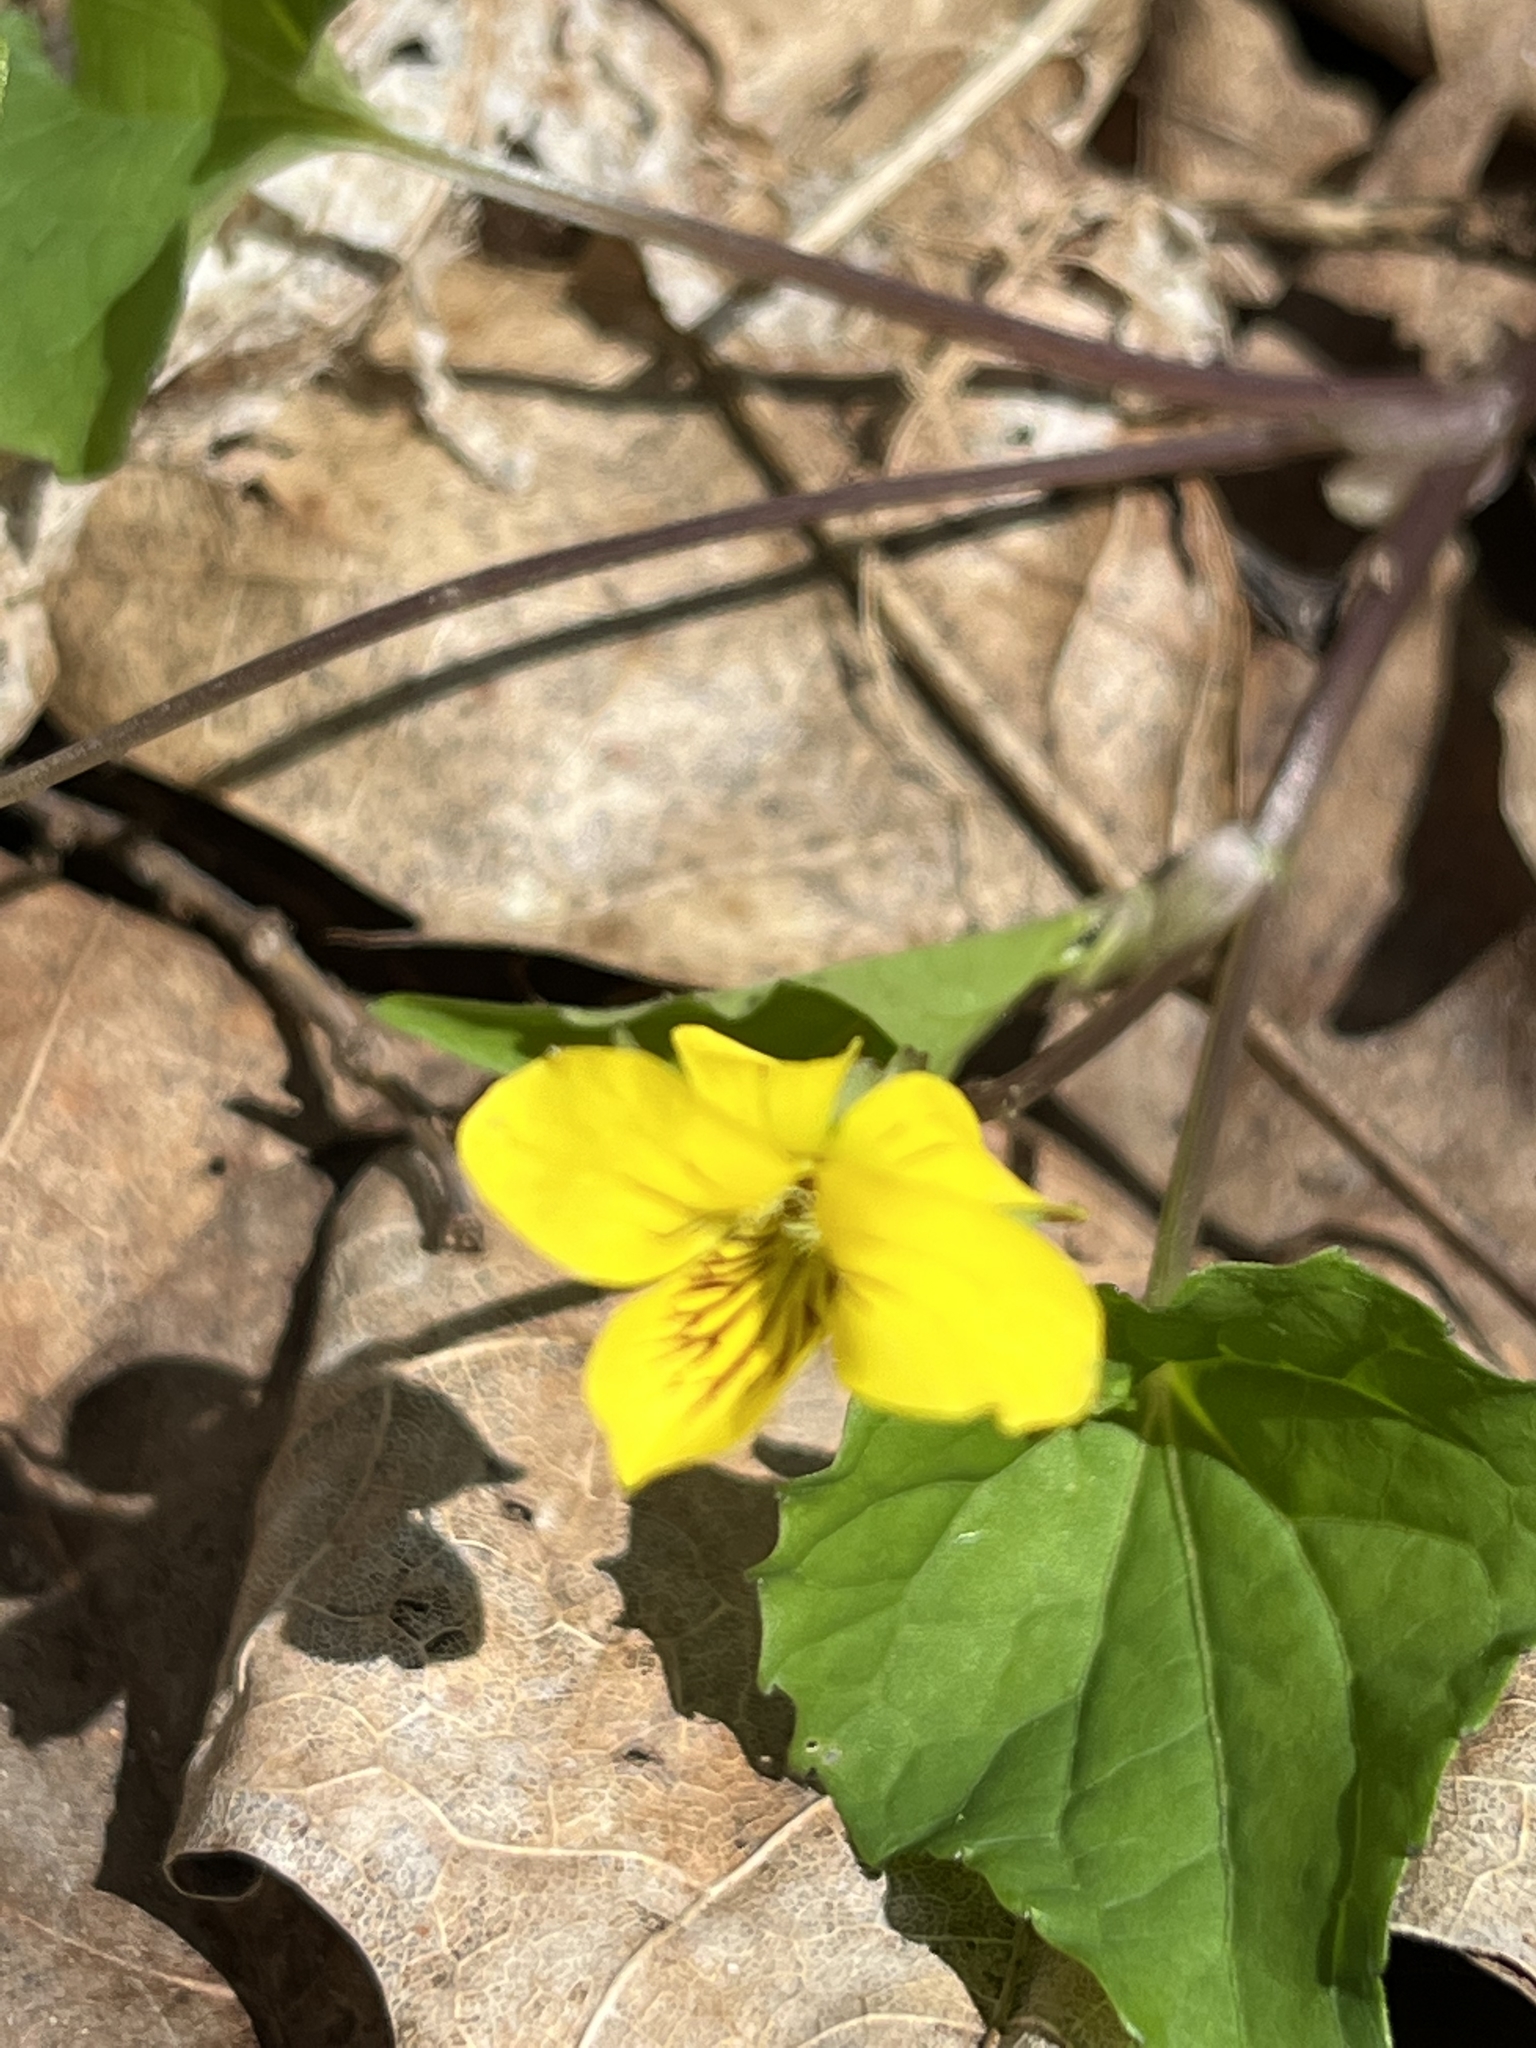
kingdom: Plantae
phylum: Tracheophyta
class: Magnoliopsida
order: Malpighiales
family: Violaceae
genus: Viola
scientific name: Viola eriocarpa
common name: Smooth yellow violet
